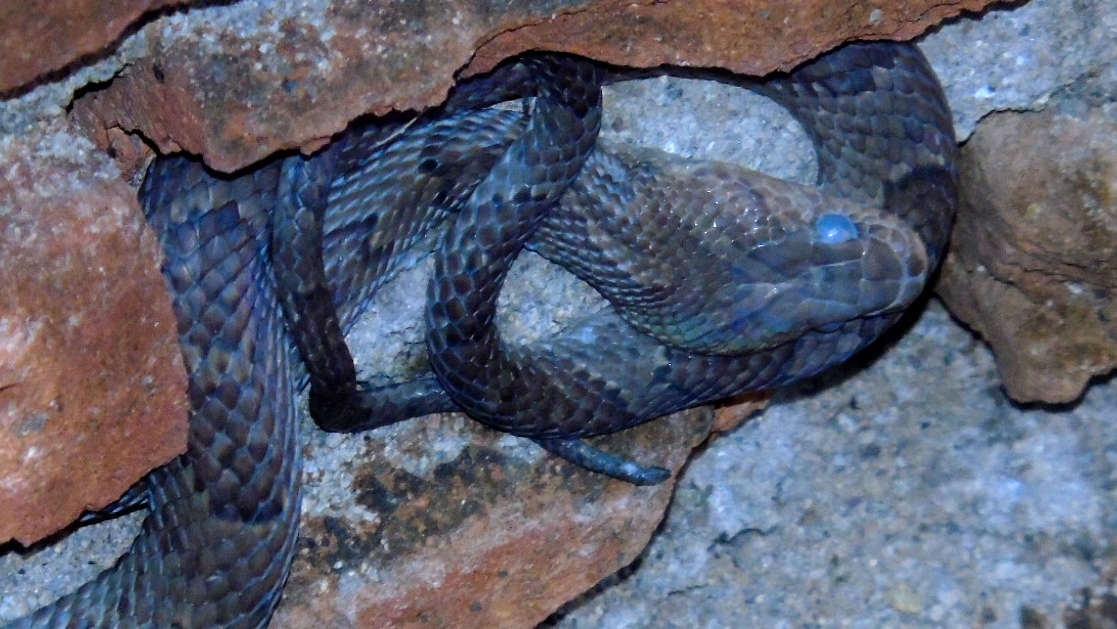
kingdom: Animalia
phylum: Chordata
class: Squamata
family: Colubridae
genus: Trimorphodon
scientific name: Trimorphodon paucimaculatus
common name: Sinaloan lyresnake
